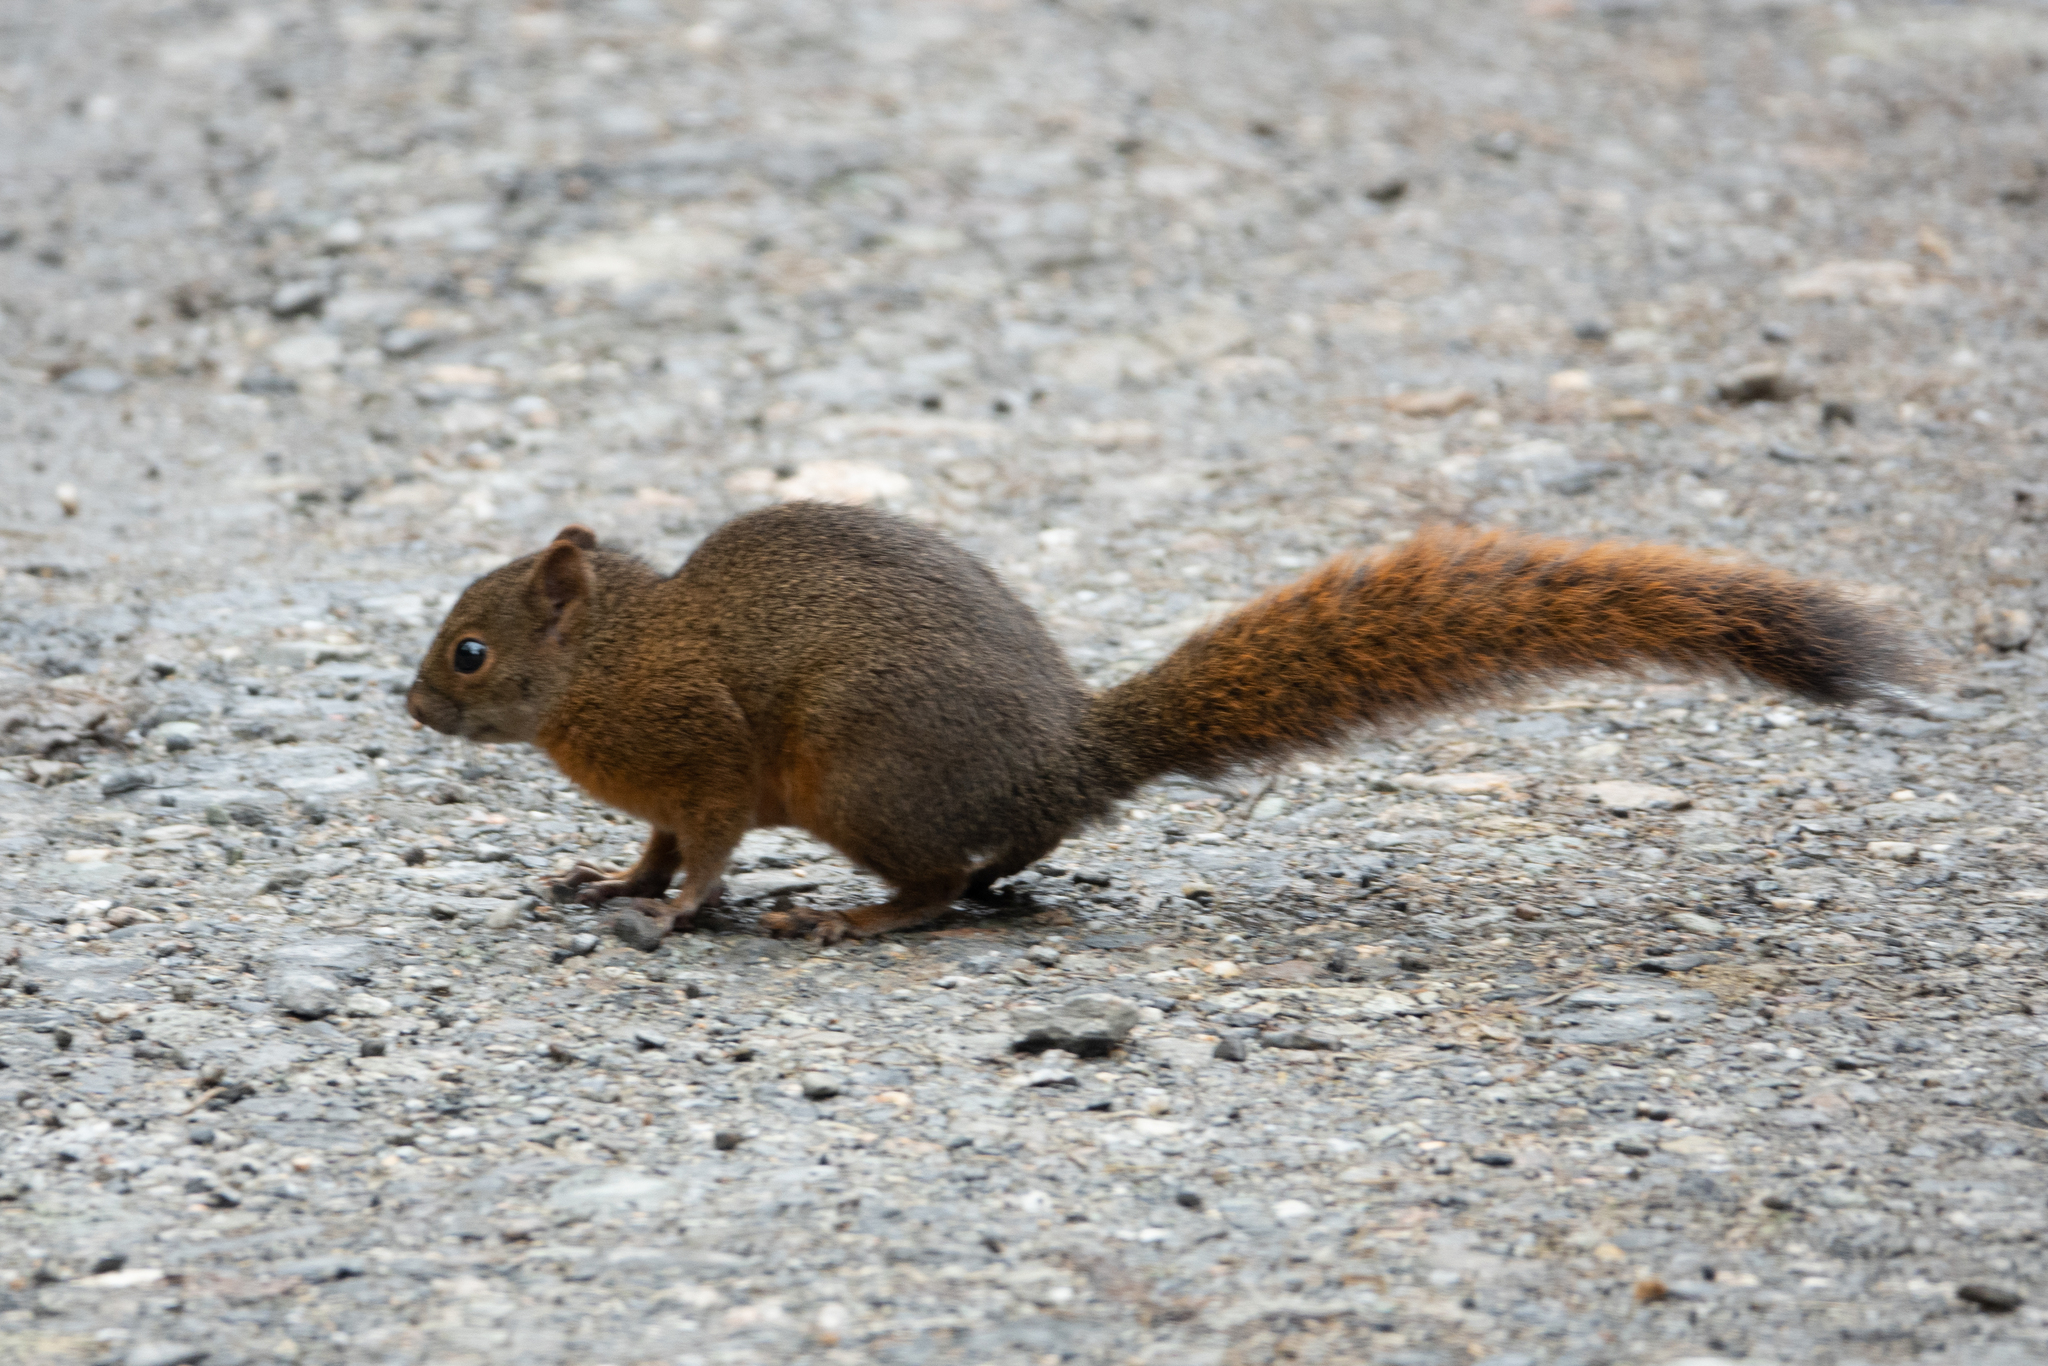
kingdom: Animalia
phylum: Chordata
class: Mammalia
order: Rodentia
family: Sciuridae
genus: Sciurus
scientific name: Sciurus granatensis
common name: Red-tailed squirrel
